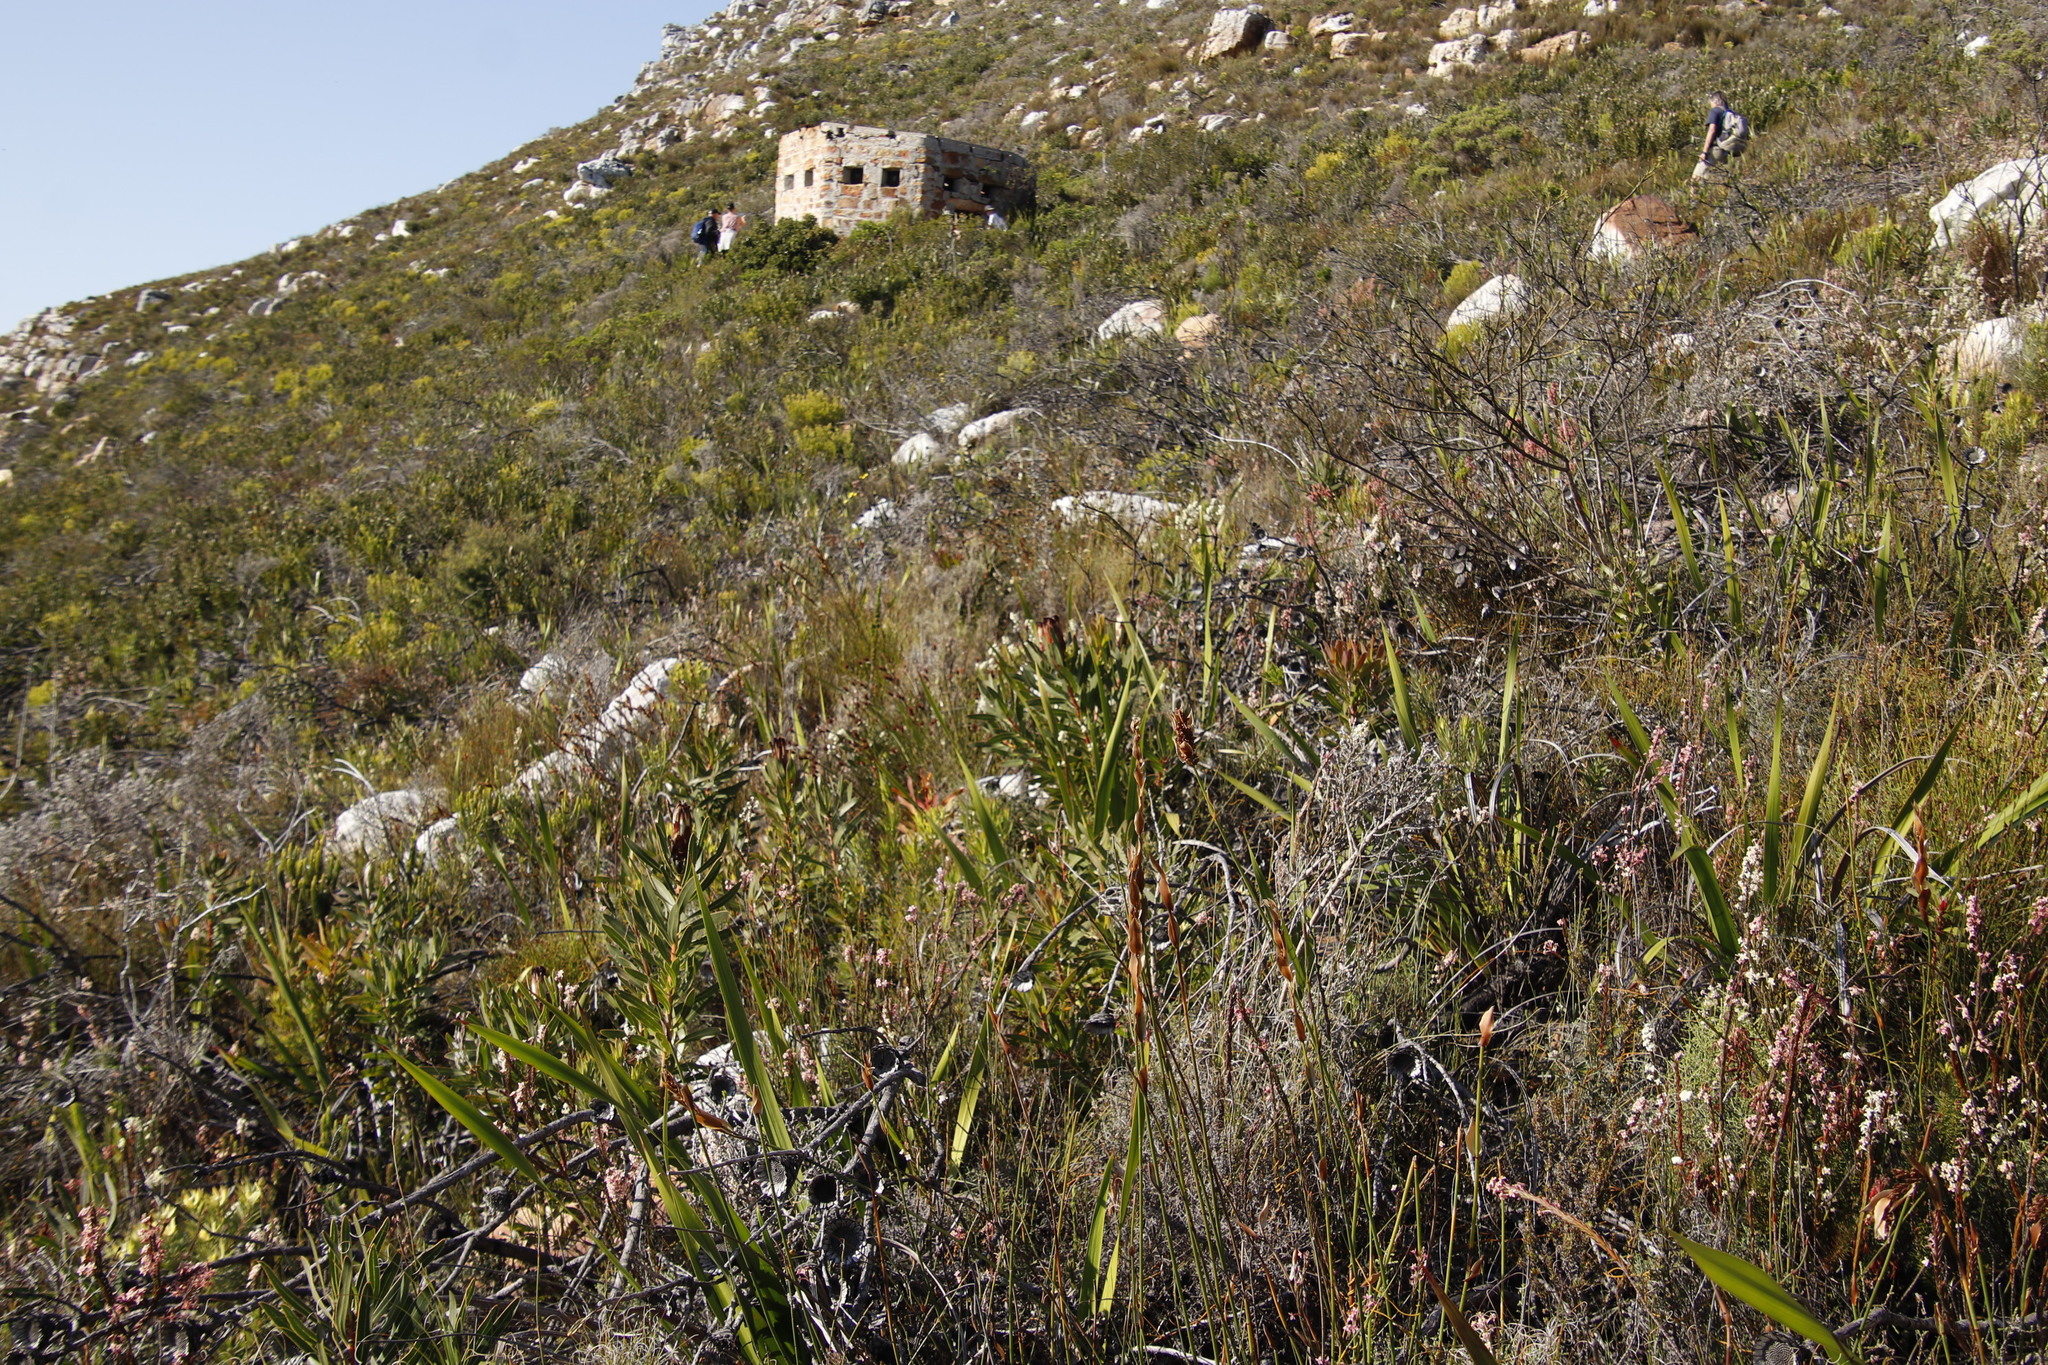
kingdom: Plantae
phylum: Tracheophyta
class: Magnoliopsida
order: Proteales
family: Proteaceae
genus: Protea
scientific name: Protea lepidocarpodendron
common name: Black-bearded protea
